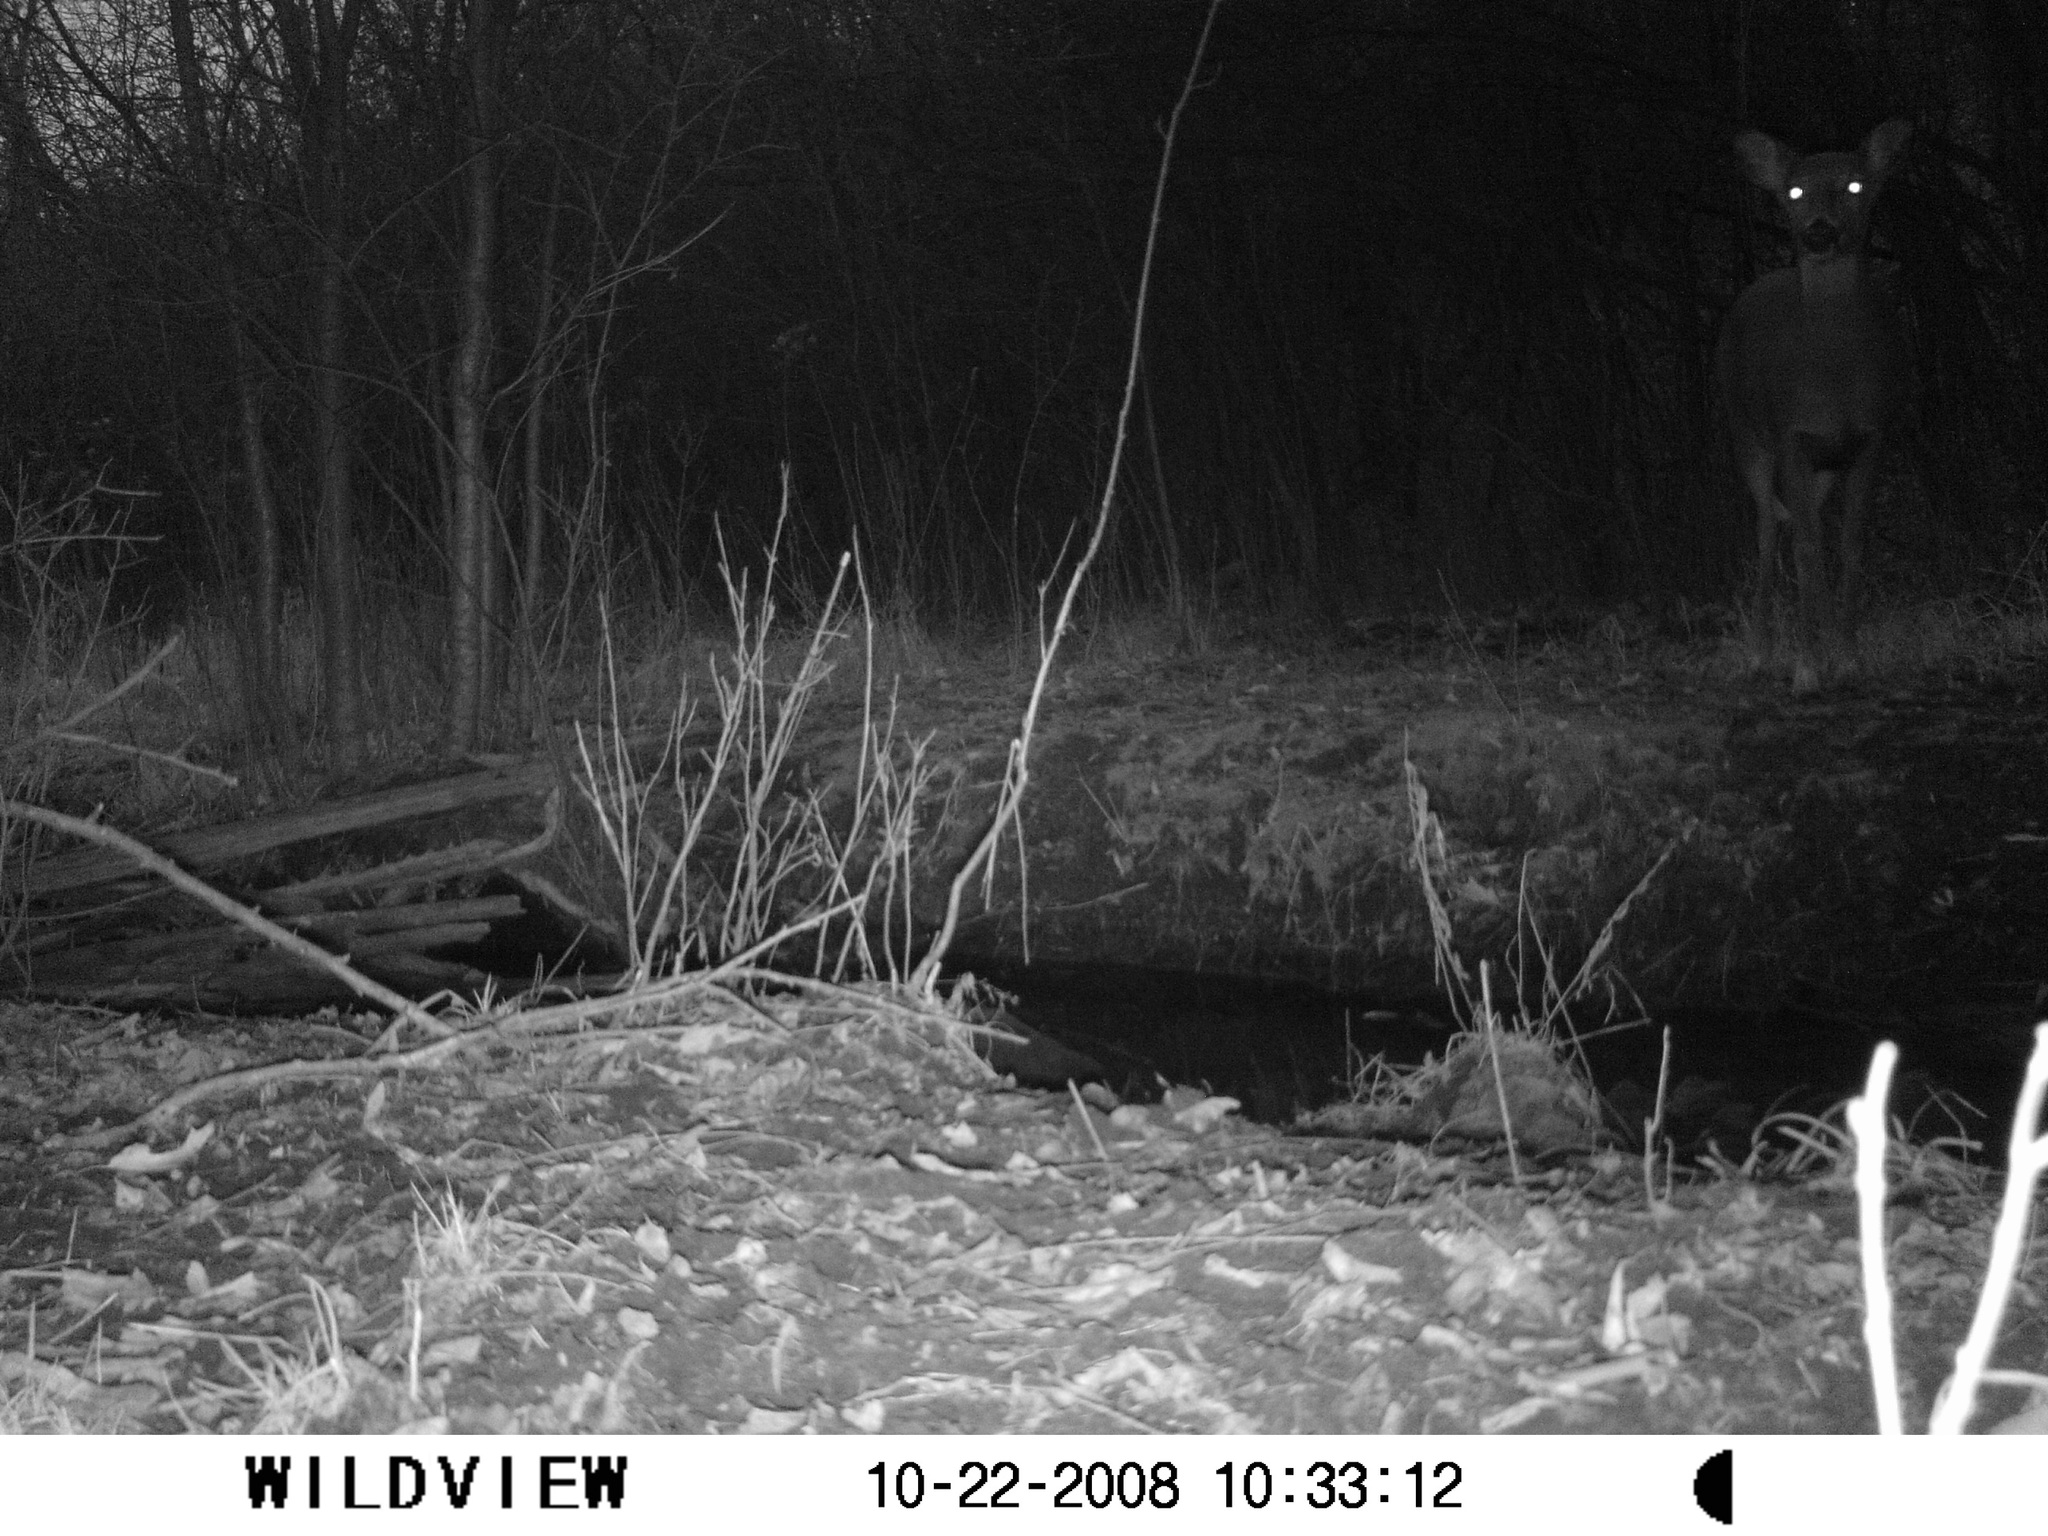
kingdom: Animalia
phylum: Chordata
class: Mammalia
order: Artiodactyla
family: Cervidae
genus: Odocoileus
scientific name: Odocoileus virginianus
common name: White-tailed deer
